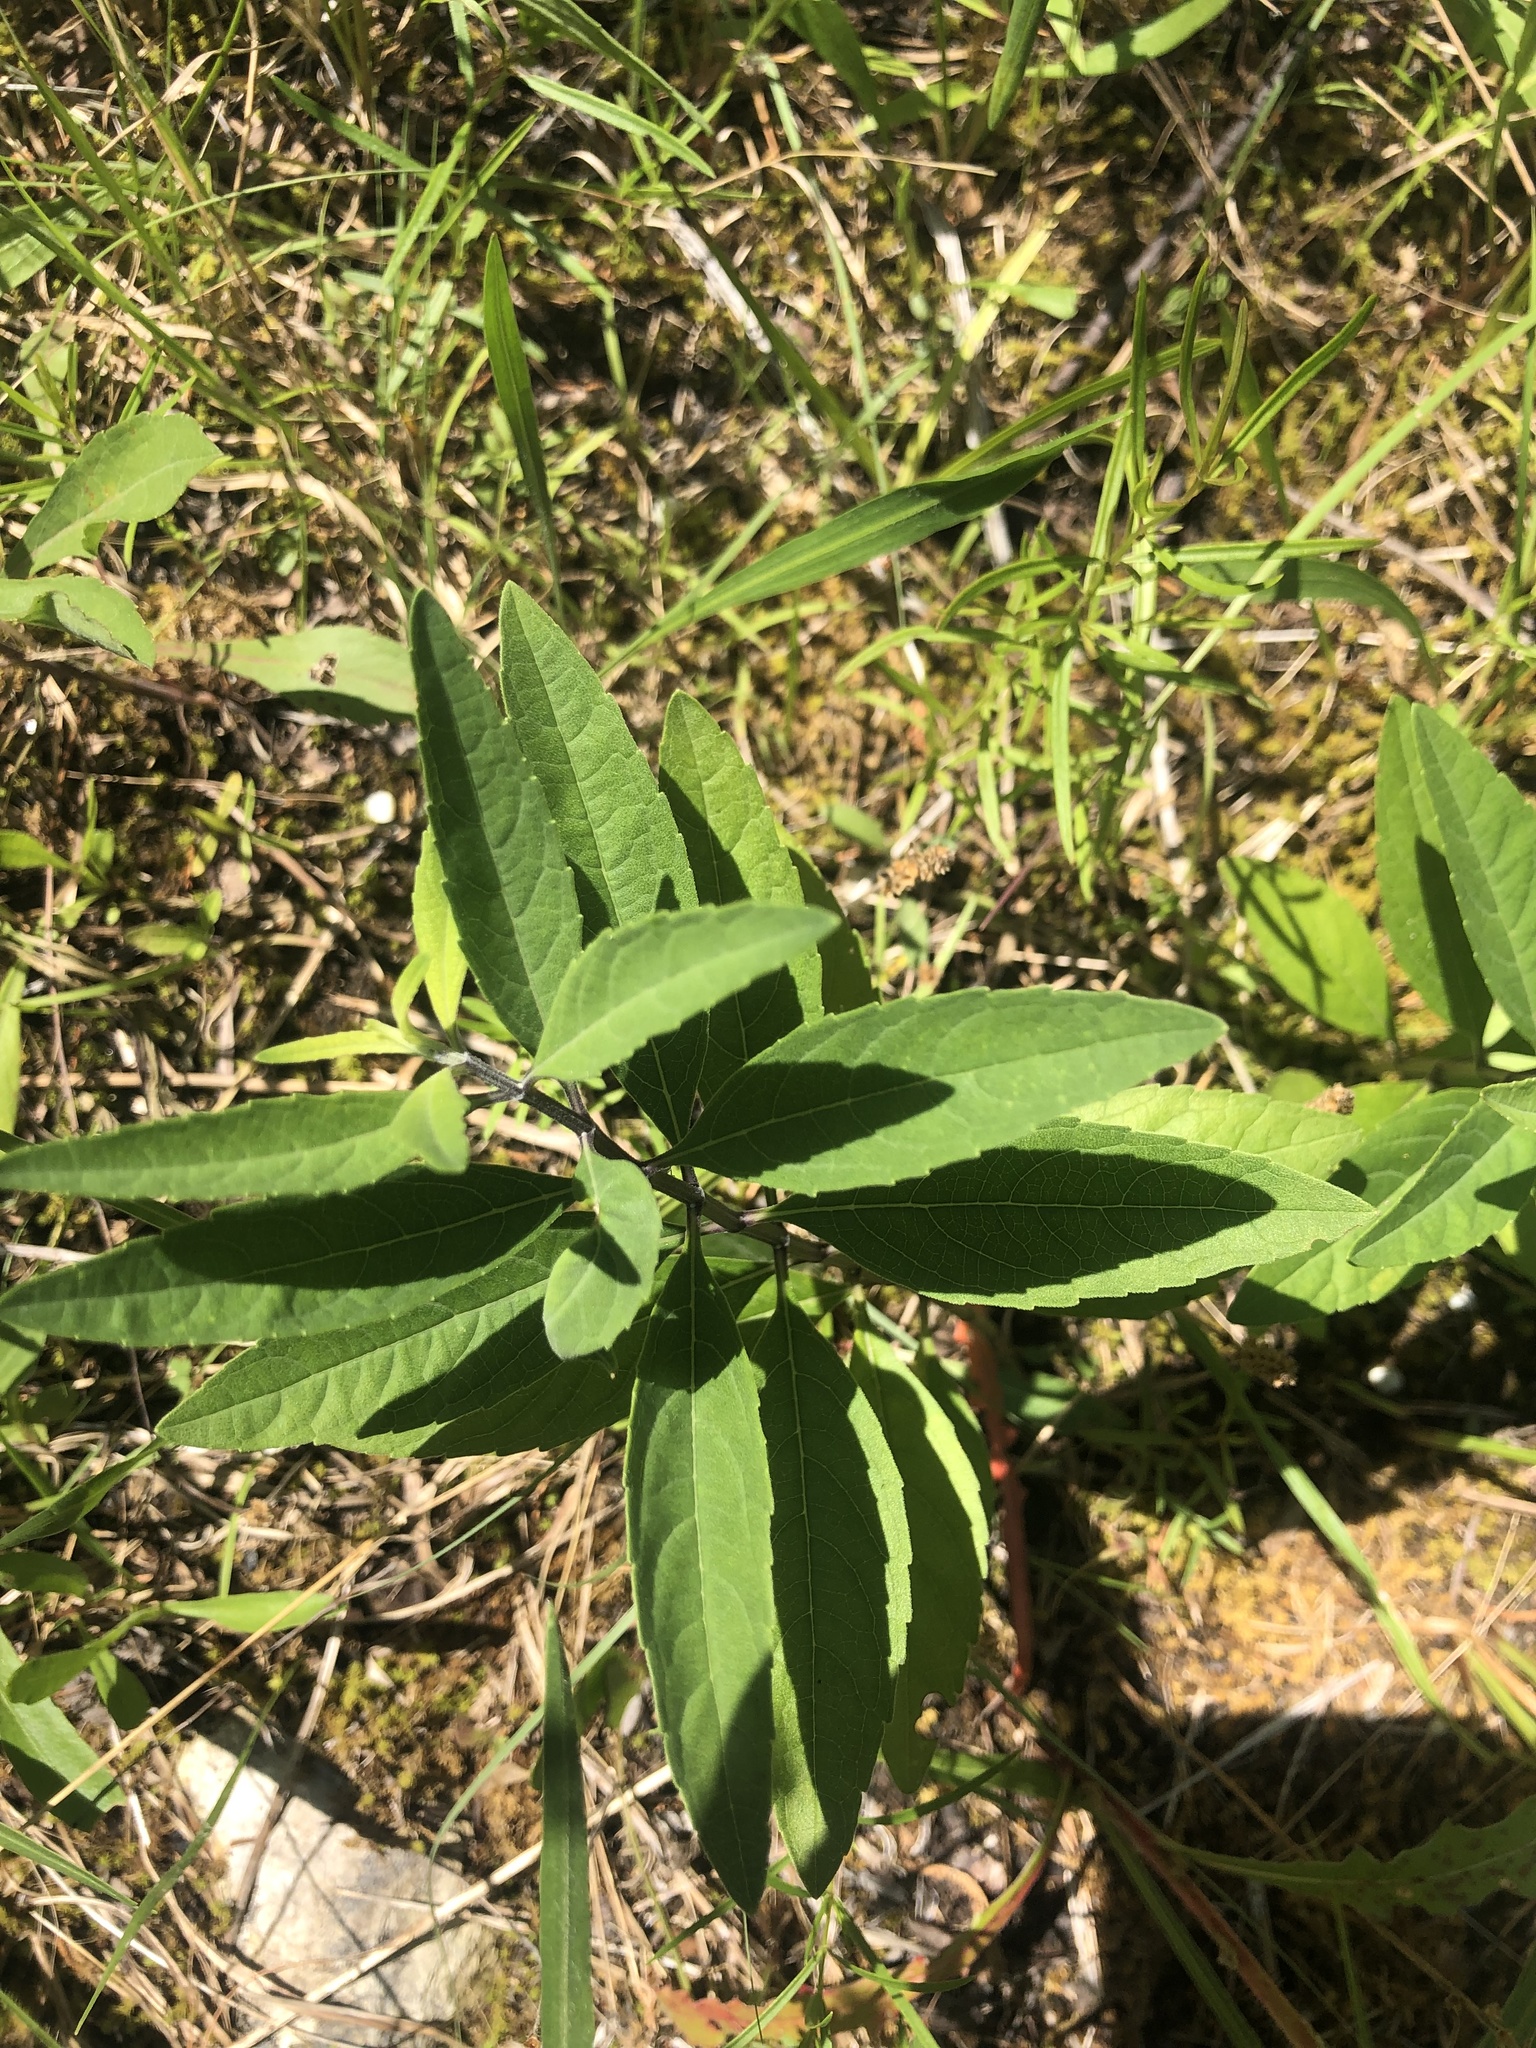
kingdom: Plantae
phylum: Tracheophyta
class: Magnoliopsida
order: Lamiales
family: Lamiaceae
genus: Salvia
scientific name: Salvia azurea
